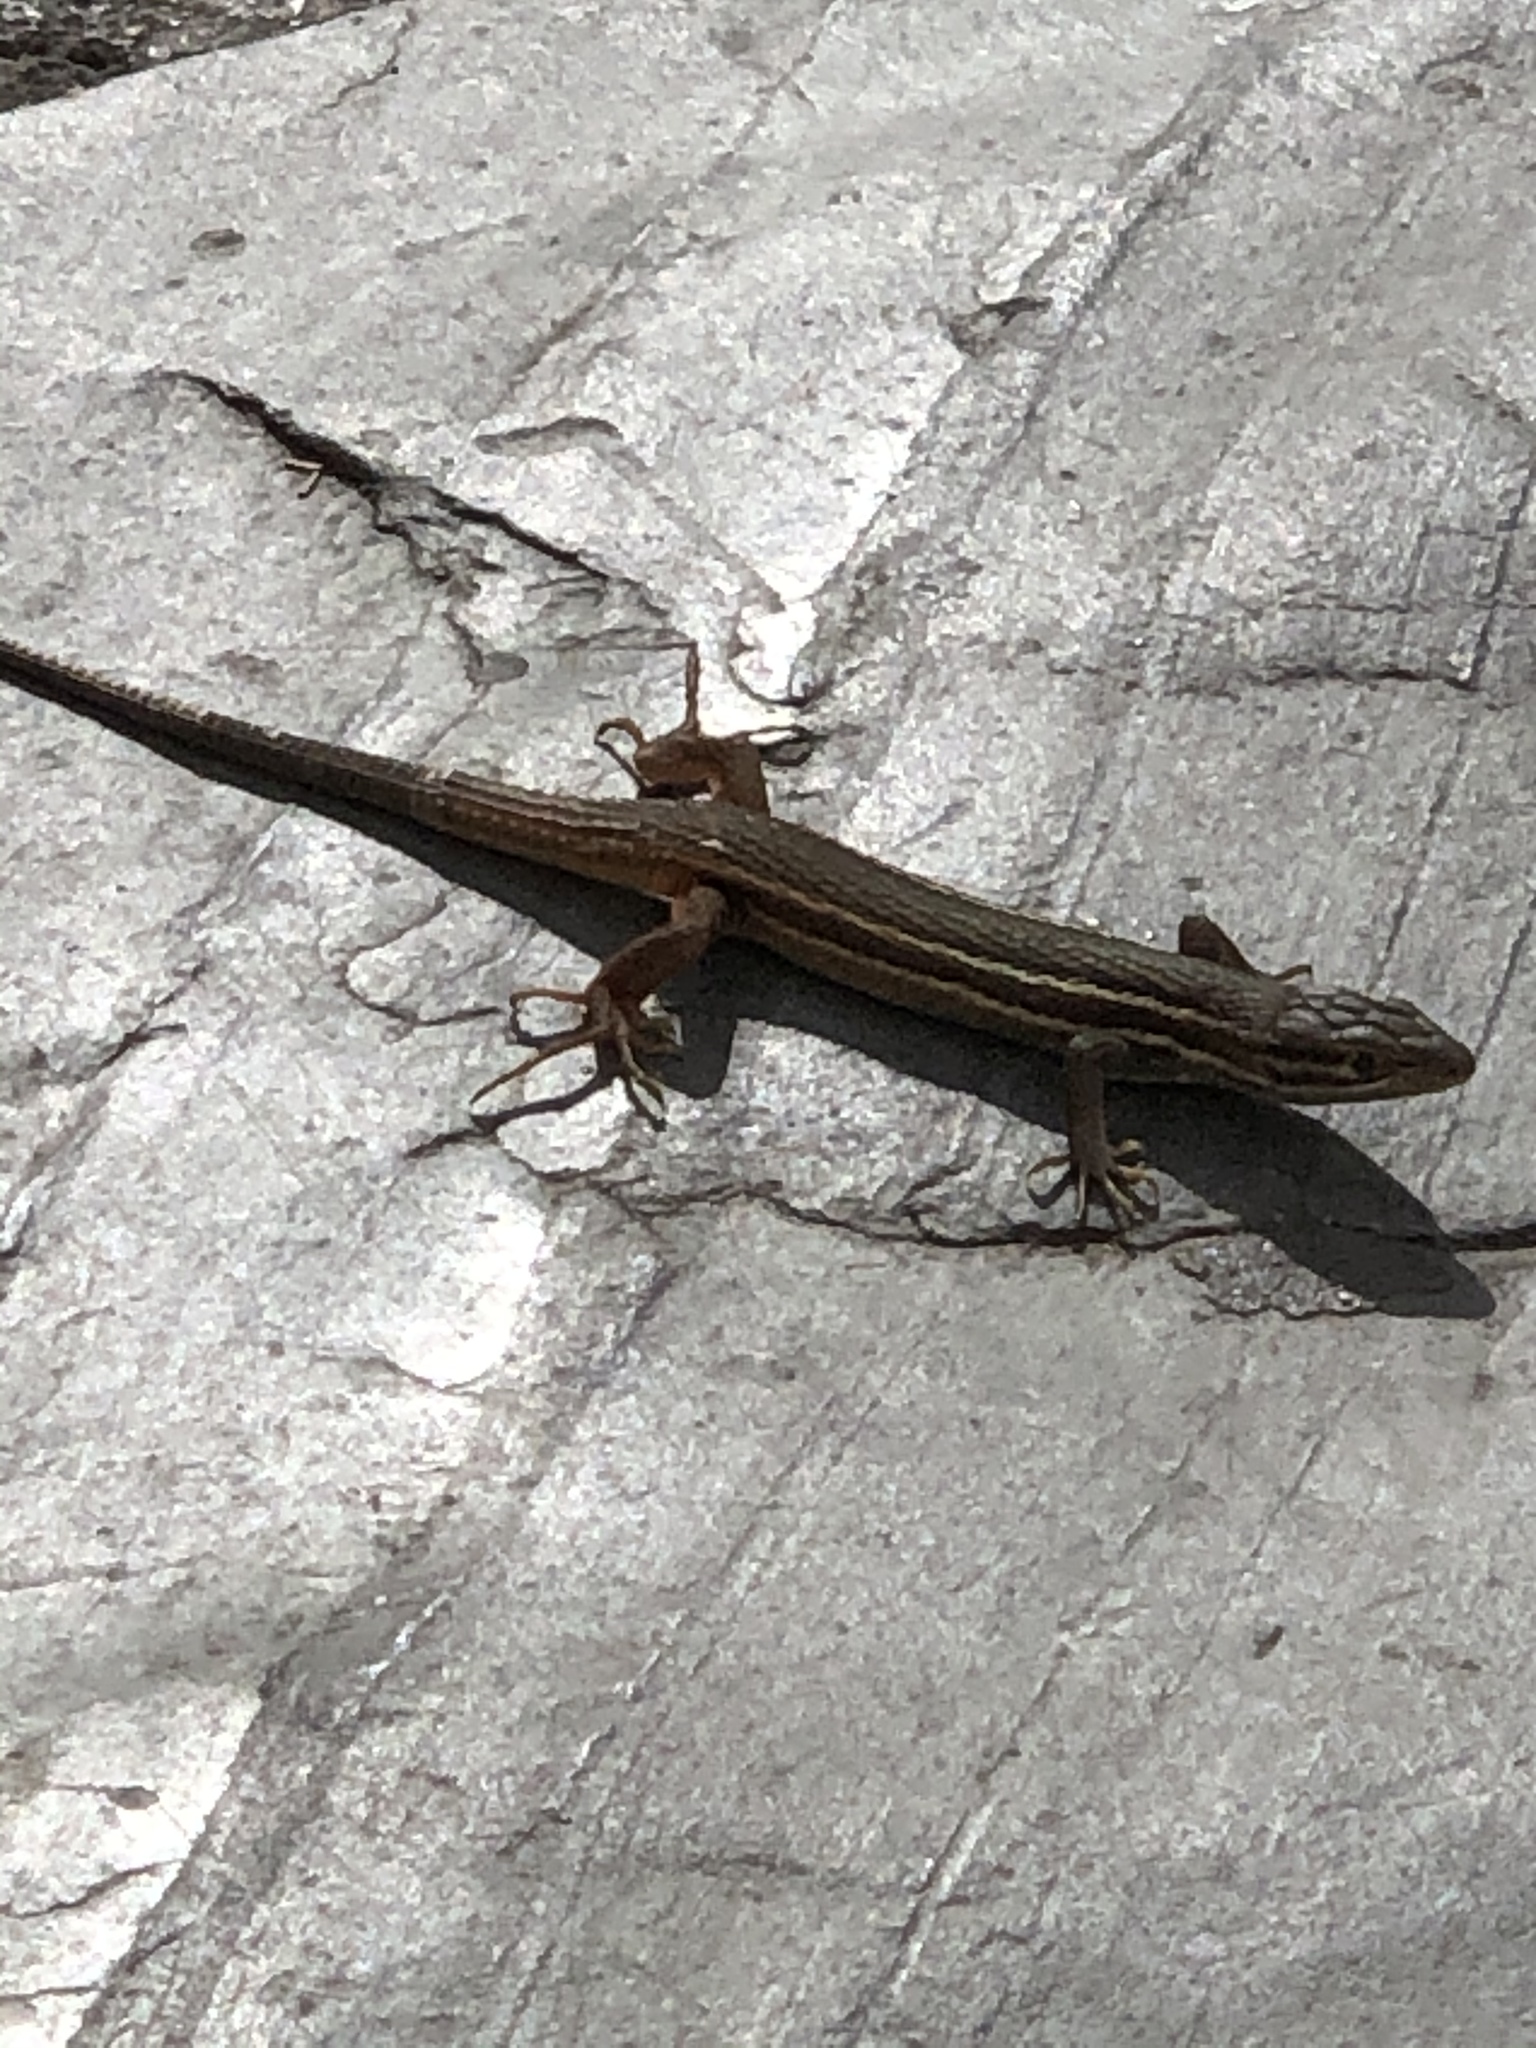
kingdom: Animalia
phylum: Chordata
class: Squamata
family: Lacertidae
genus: Psammodromus
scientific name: Psammodromus algirus
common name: Algerian psammodromus
